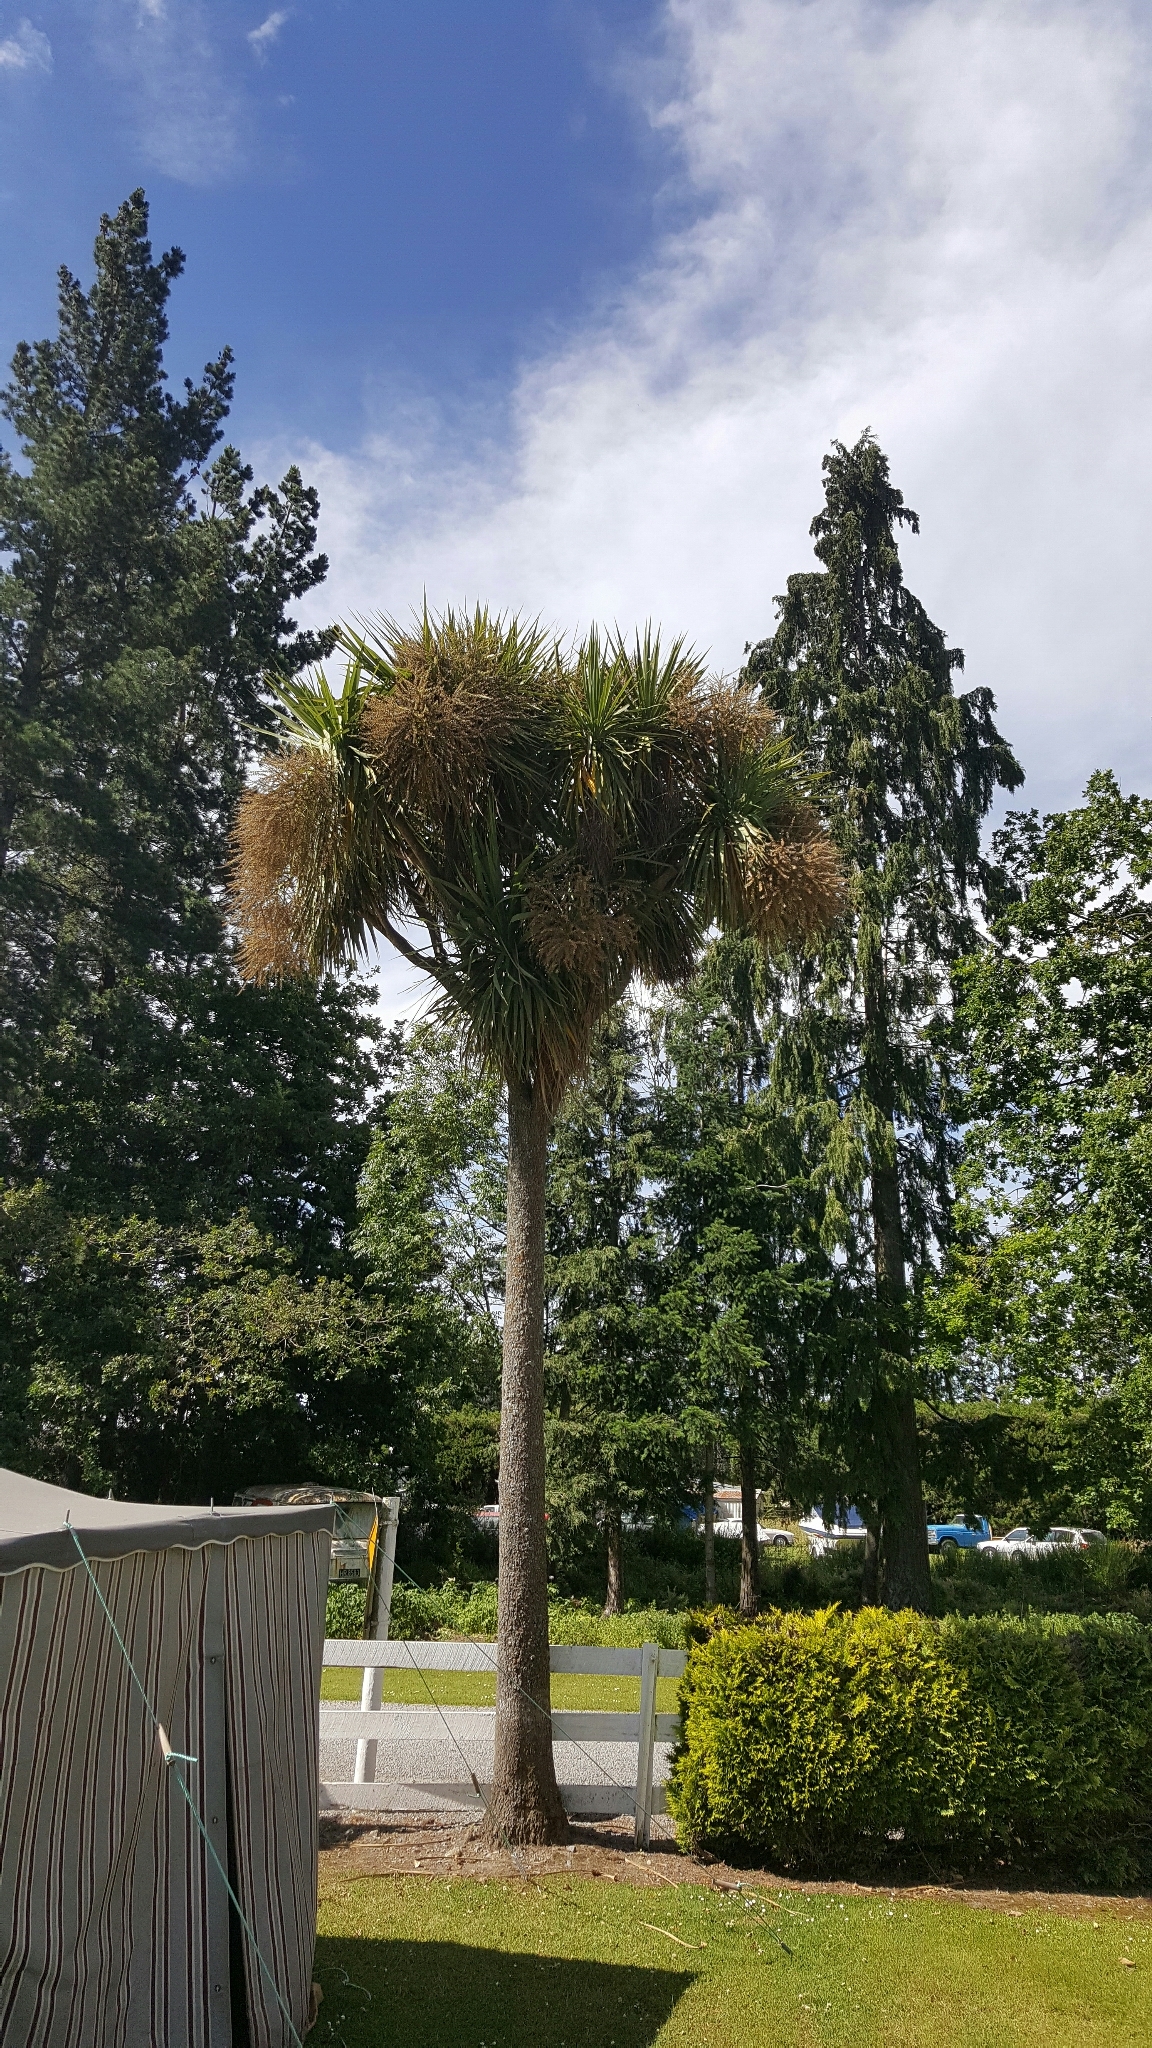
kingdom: Plantae
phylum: Tracheophyta
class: Liliopsida
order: Asparagales
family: Asparagaceae
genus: Cordyline
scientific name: Cordyline australis
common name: Cabbage-palm
